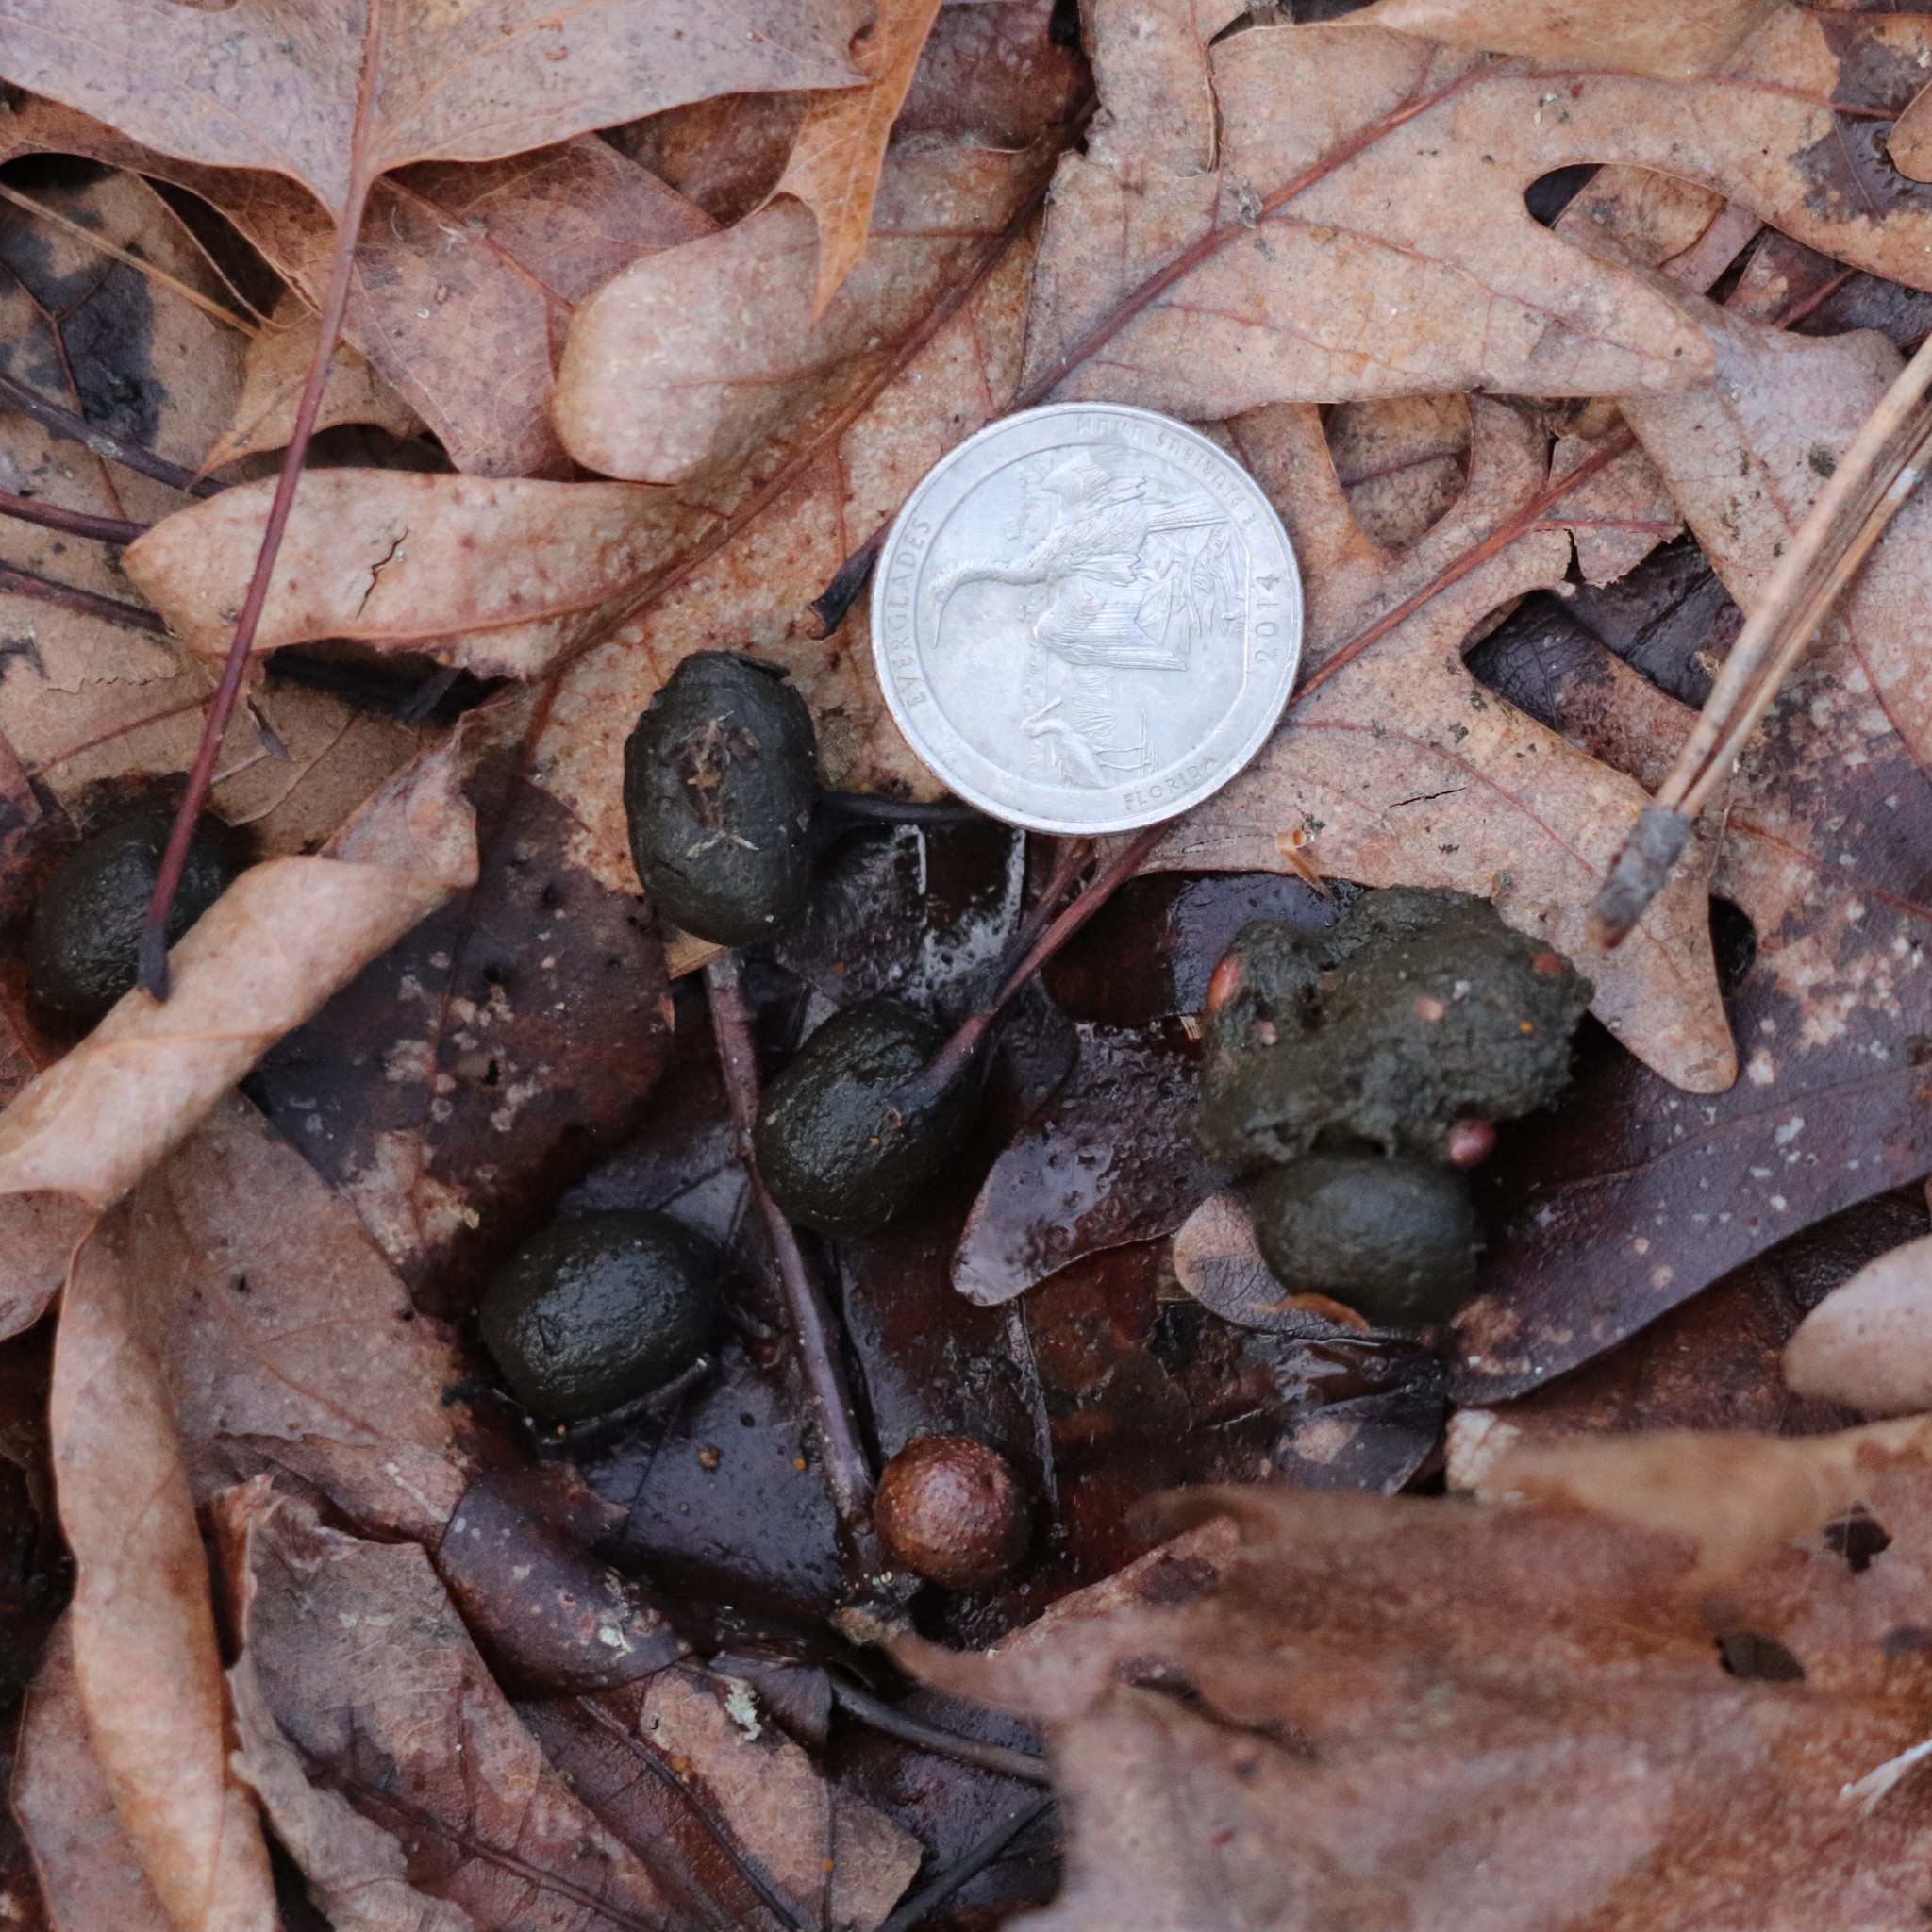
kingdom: Animalia
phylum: Chordata
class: Mammalia
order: Artiodactyla
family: Cervidae
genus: Odocoileus
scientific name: Odocoileus virginianus
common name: White-tailed deer
